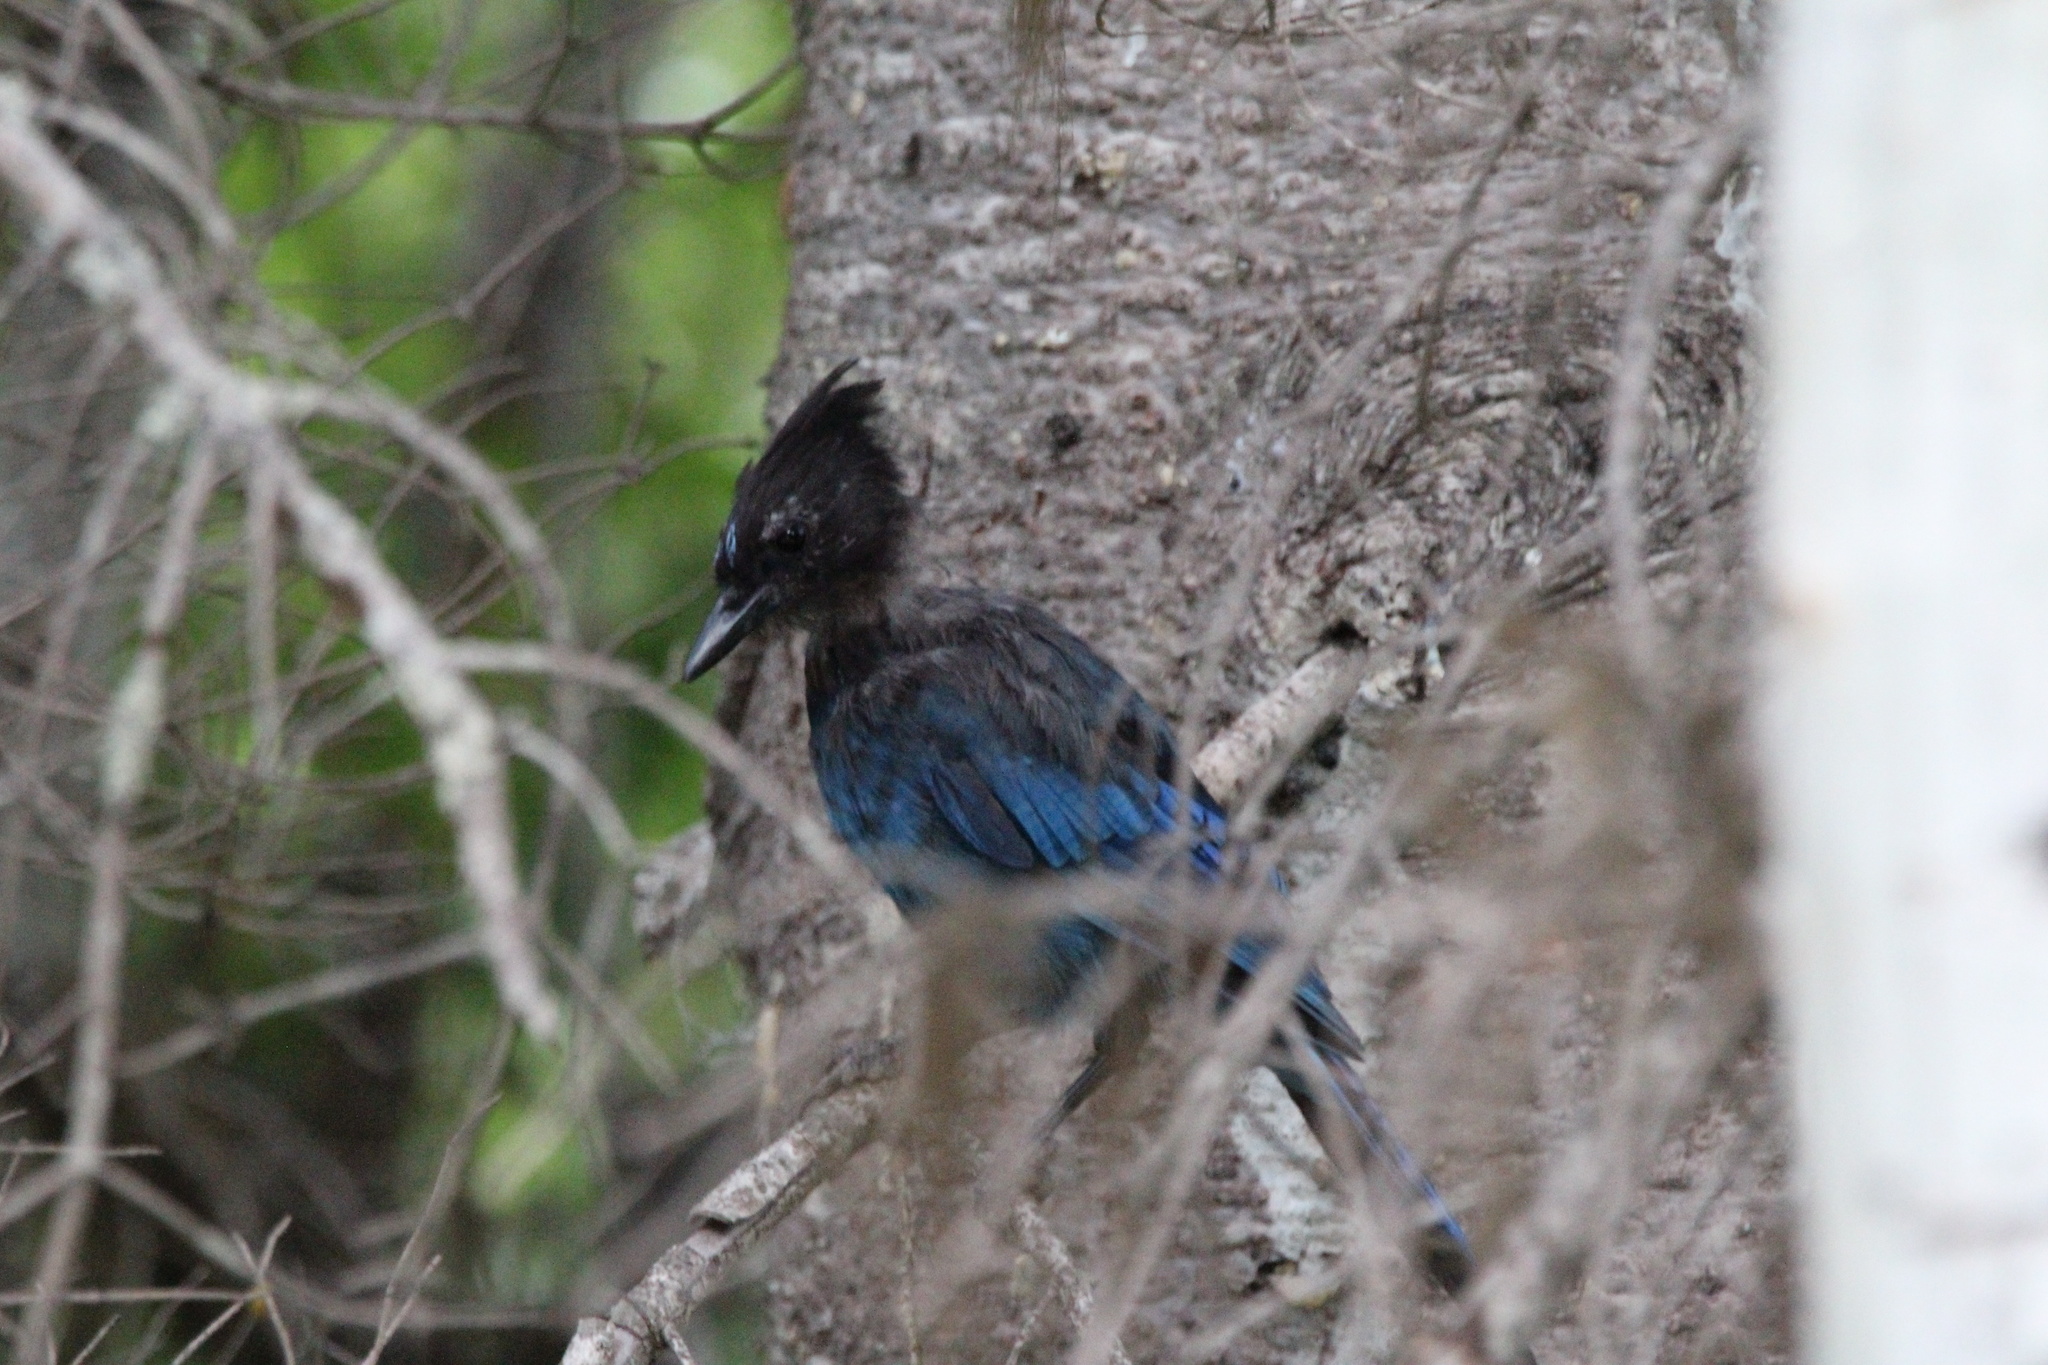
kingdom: Animalia
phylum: Chordata
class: Aves
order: Passeriformes
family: Corvidae
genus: Cyanocitta
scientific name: Cyanocitta stelleri
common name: Steller's jay
